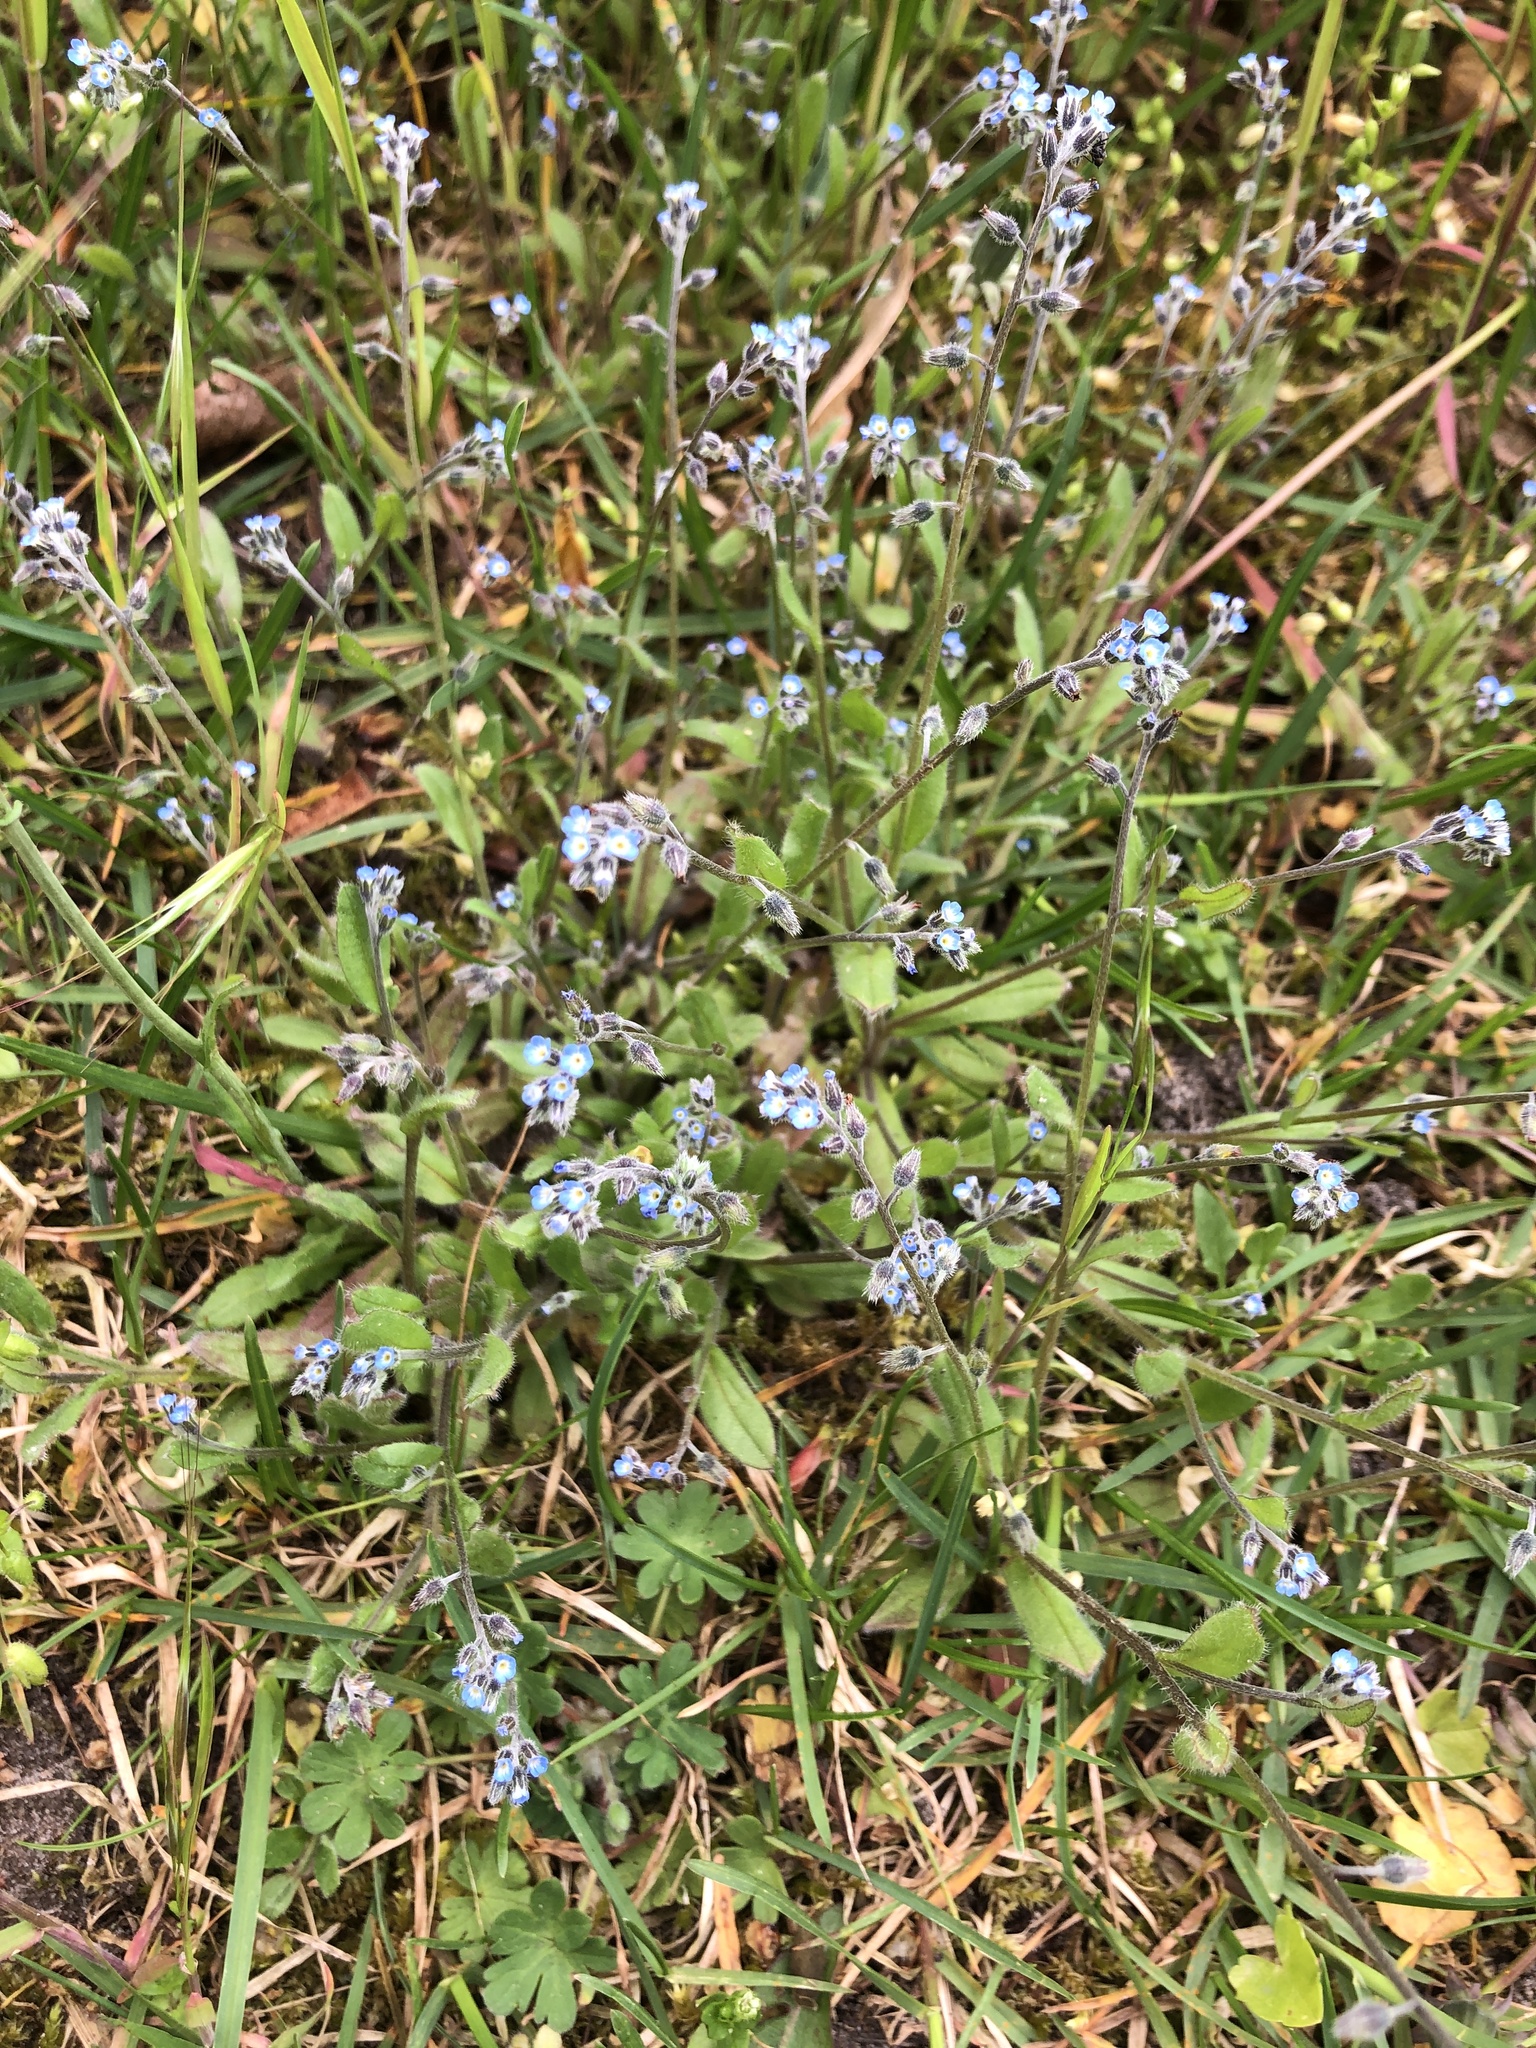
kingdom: Plantae
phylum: Tracheophyta
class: Magnoliopsida
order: Boraginales
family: Boraginaceae
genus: Myosotis
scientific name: Myosotis ramosissima
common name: Early forget-me-not
